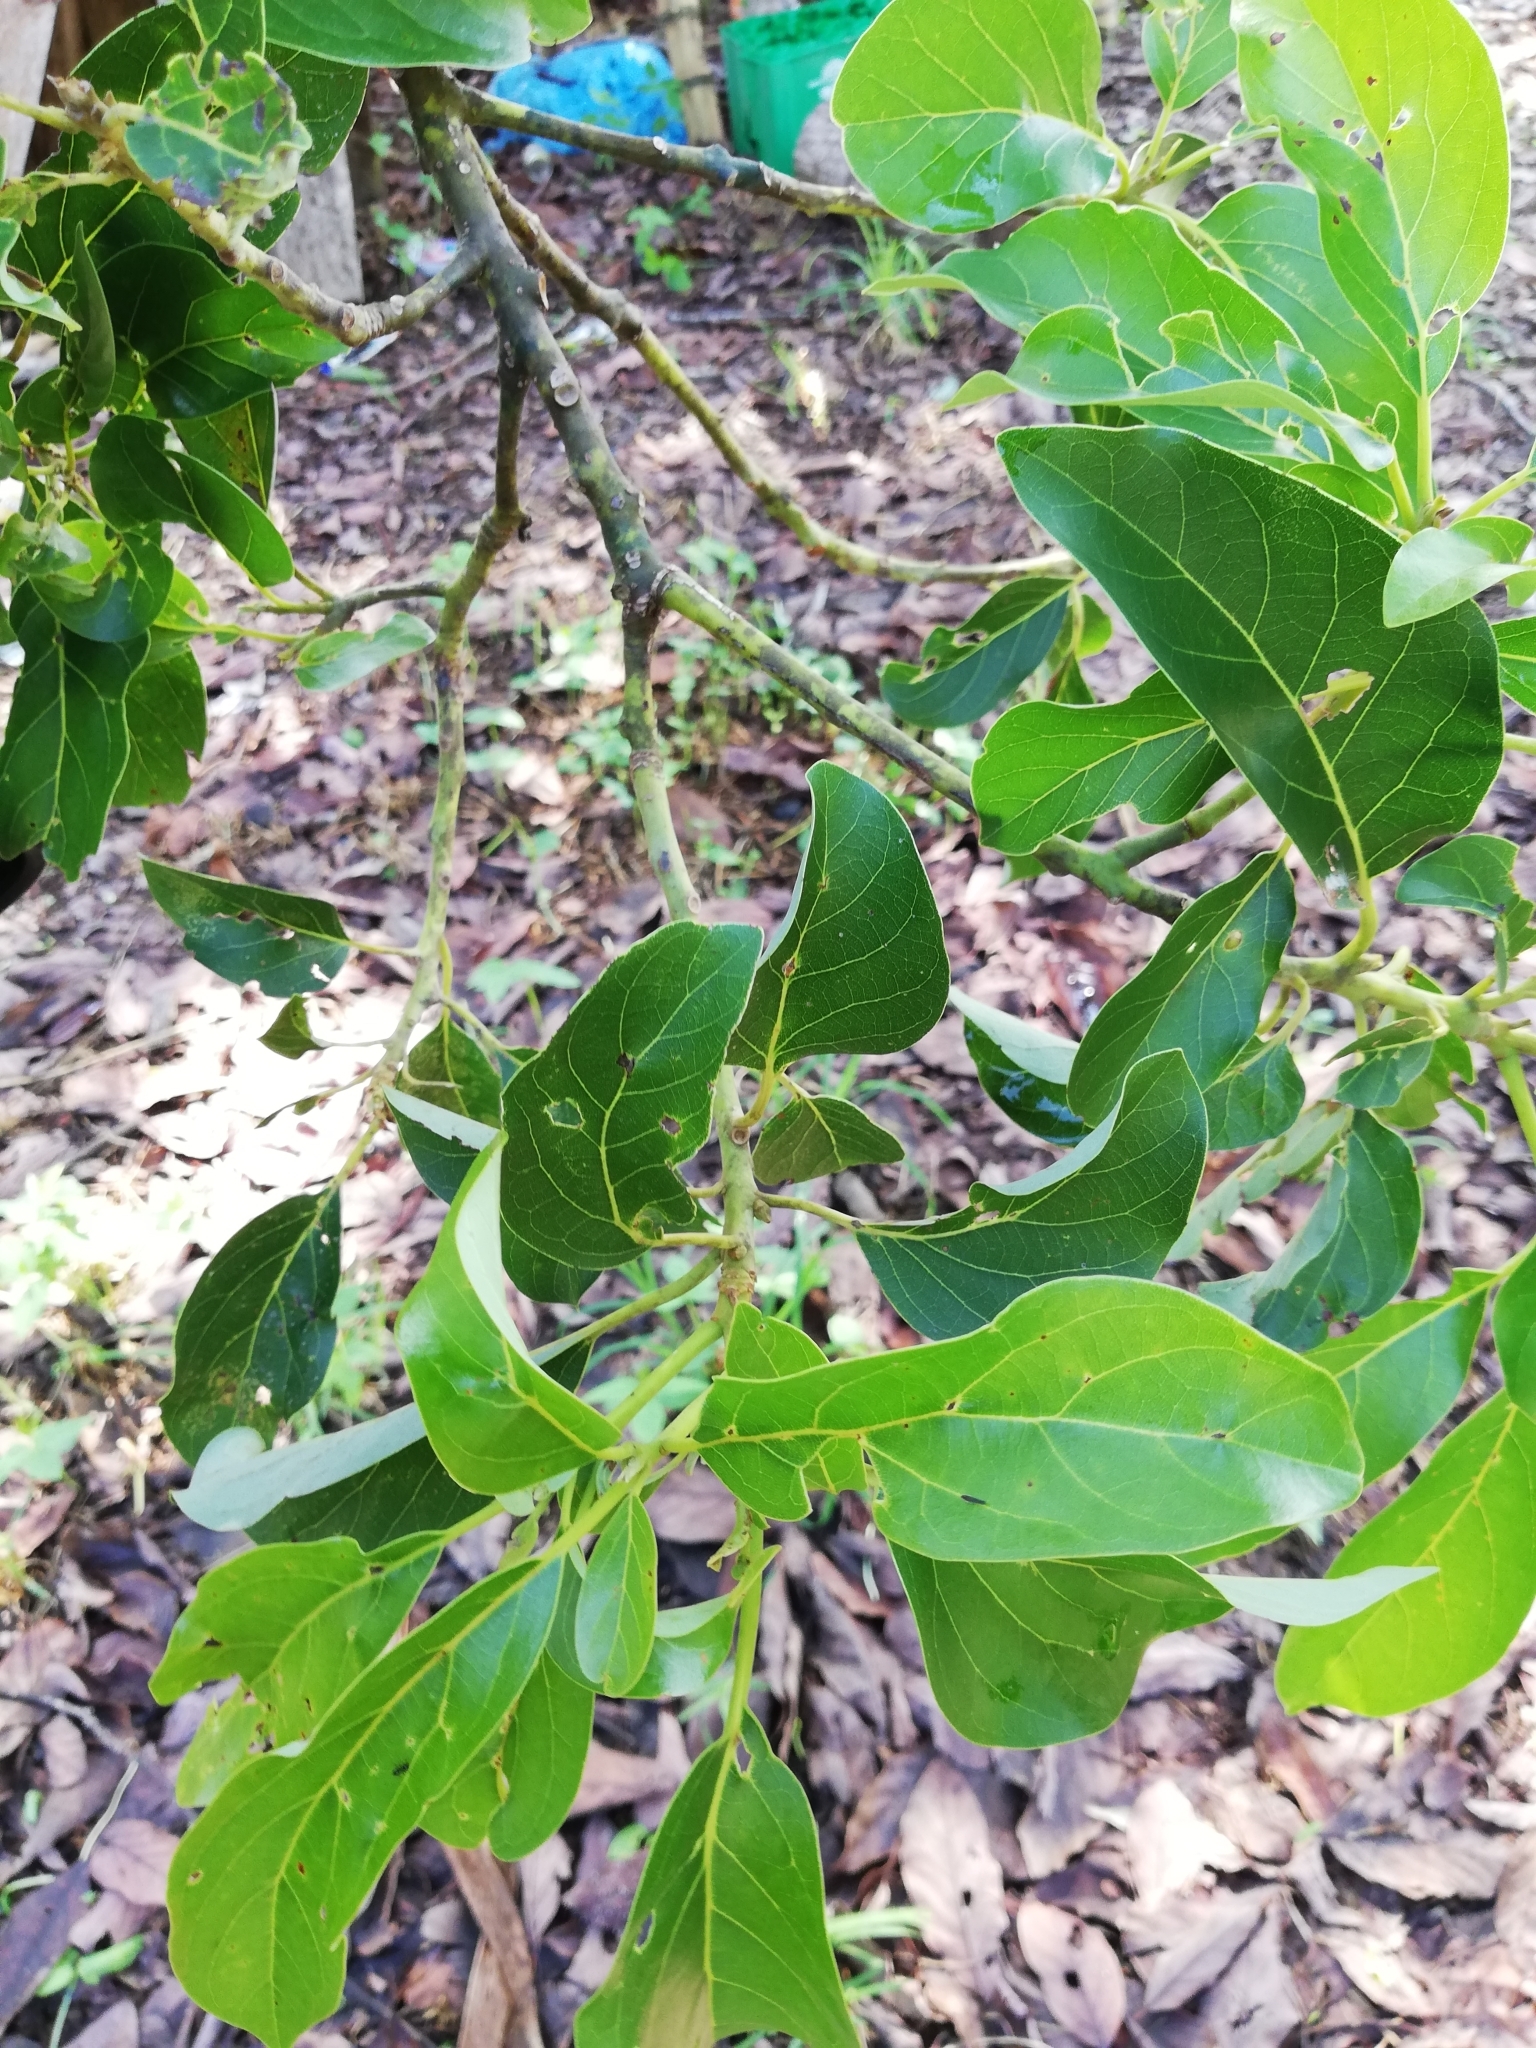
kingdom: Plantae
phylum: Tracheophyta
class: Magnoliopsida
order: Laurales
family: Lauraceae
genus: Persea
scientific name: Persea americana
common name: Avocado
